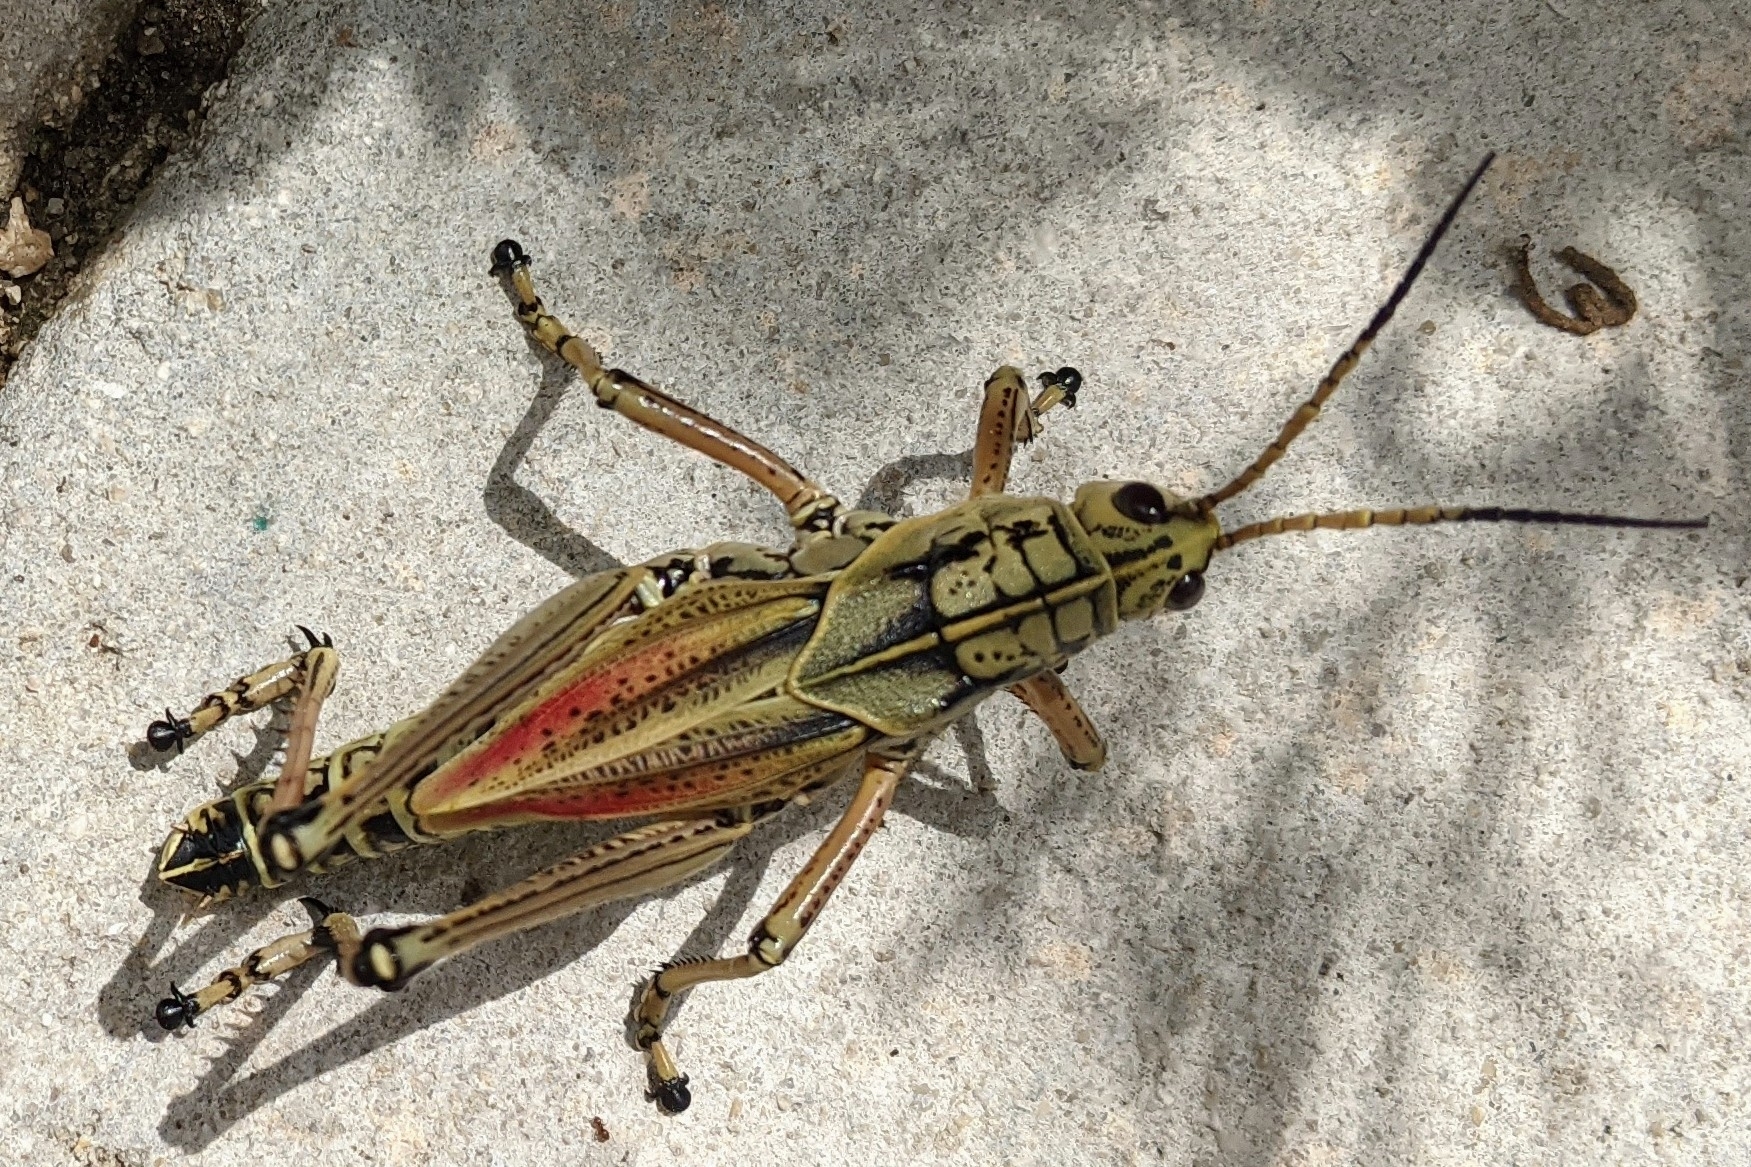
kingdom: Animalia
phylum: Arthropoda
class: Insecta
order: Orthoptera
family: Romaleidae
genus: Romalea
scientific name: Romalea microptera
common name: Eastern lubber grasshopper
